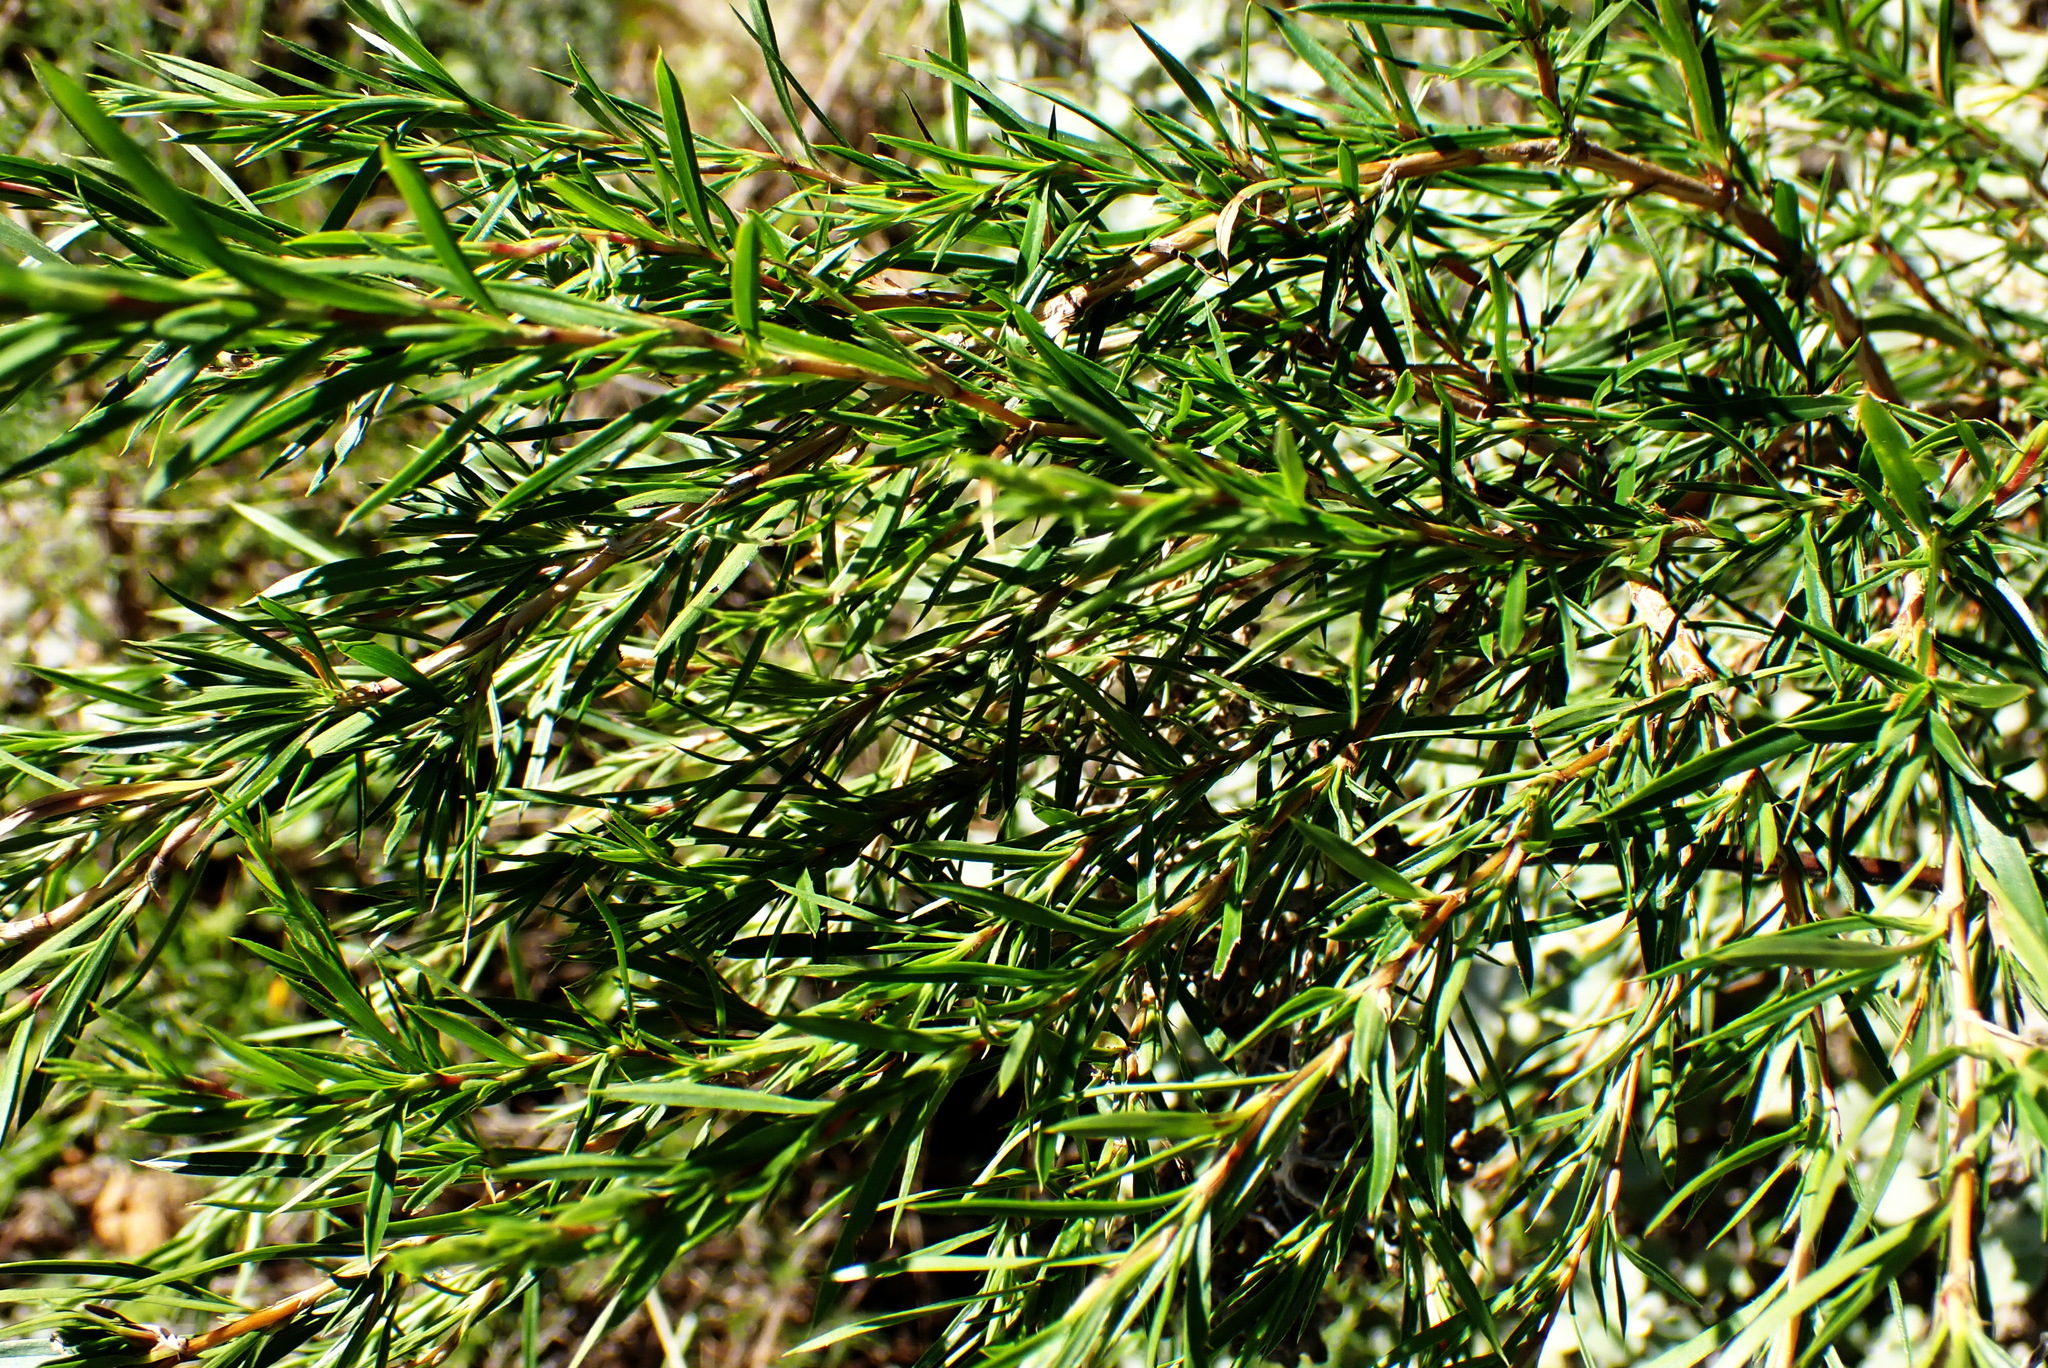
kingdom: Plantae
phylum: Tracheophyta
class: Magnoliopsida
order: Rosales
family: Rosaceae
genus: Cliffortia
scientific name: Cliffortia strobilifera
